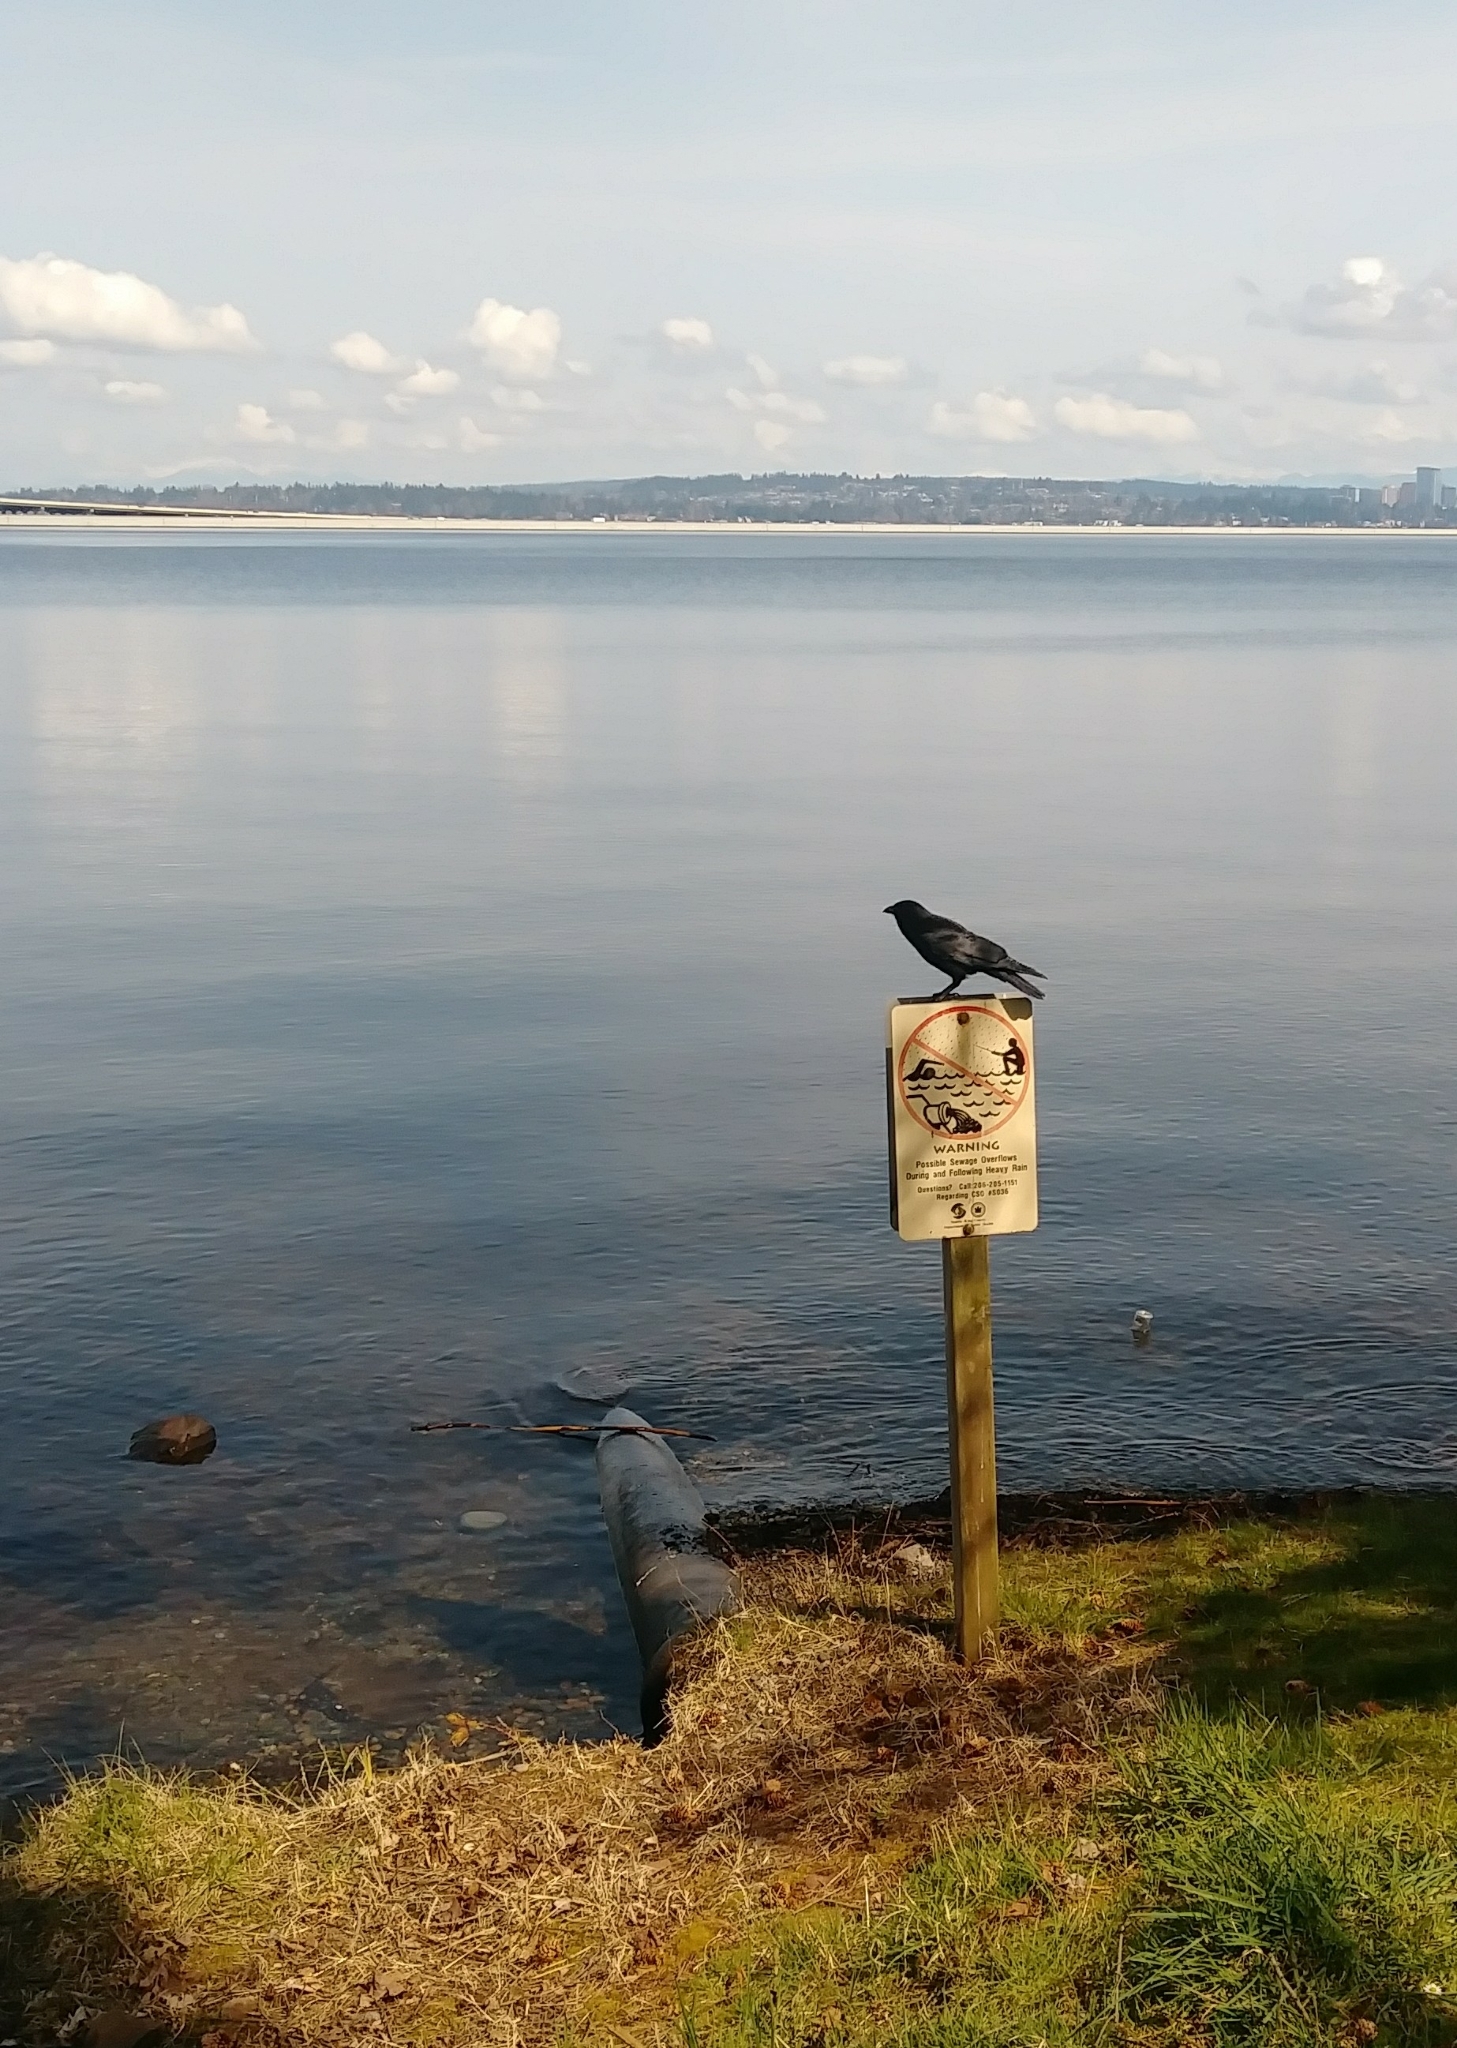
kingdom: Animalia
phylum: Chordata
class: Aves
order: Passeriformes
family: Corvidae
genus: Corvus
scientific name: Corvus brachyrhynchos
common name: American crow
